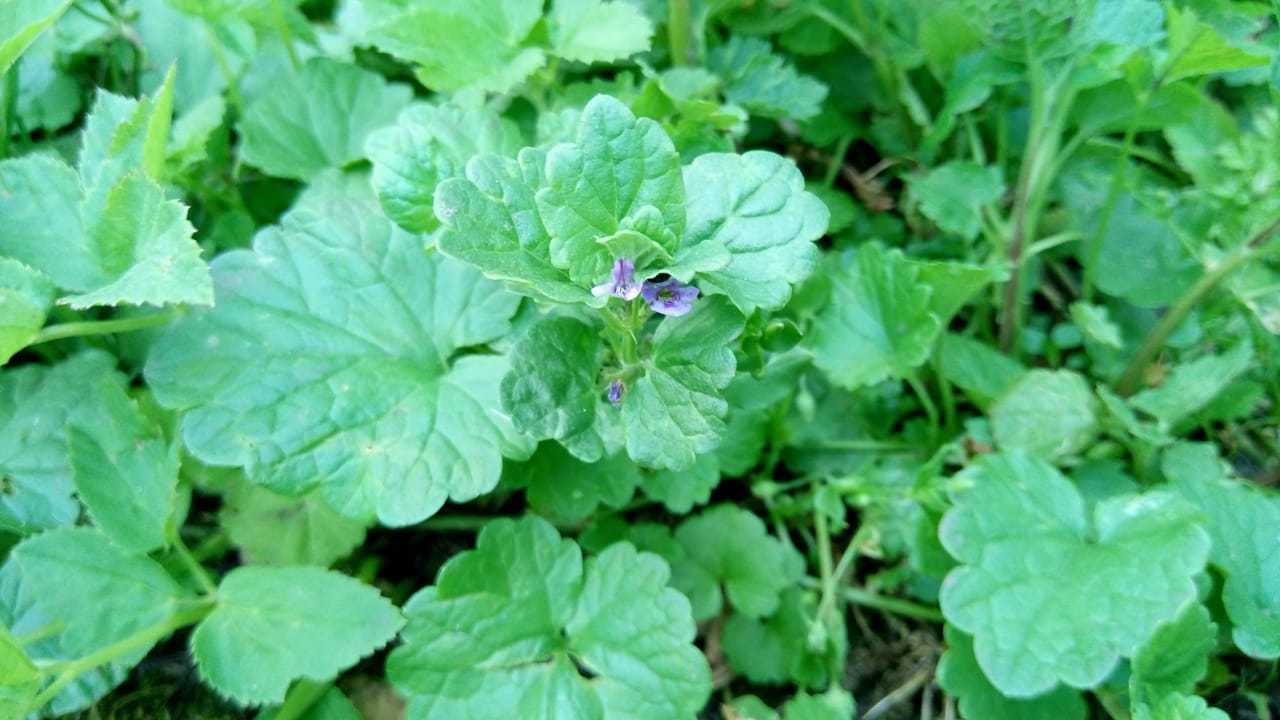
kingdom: Plantae
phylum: Tracheophyta
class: Magnoliopsida
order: Lamiales
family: Lamiaceae
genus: Glechoma
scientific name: Glechoma hederacea
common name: Ground ivy
